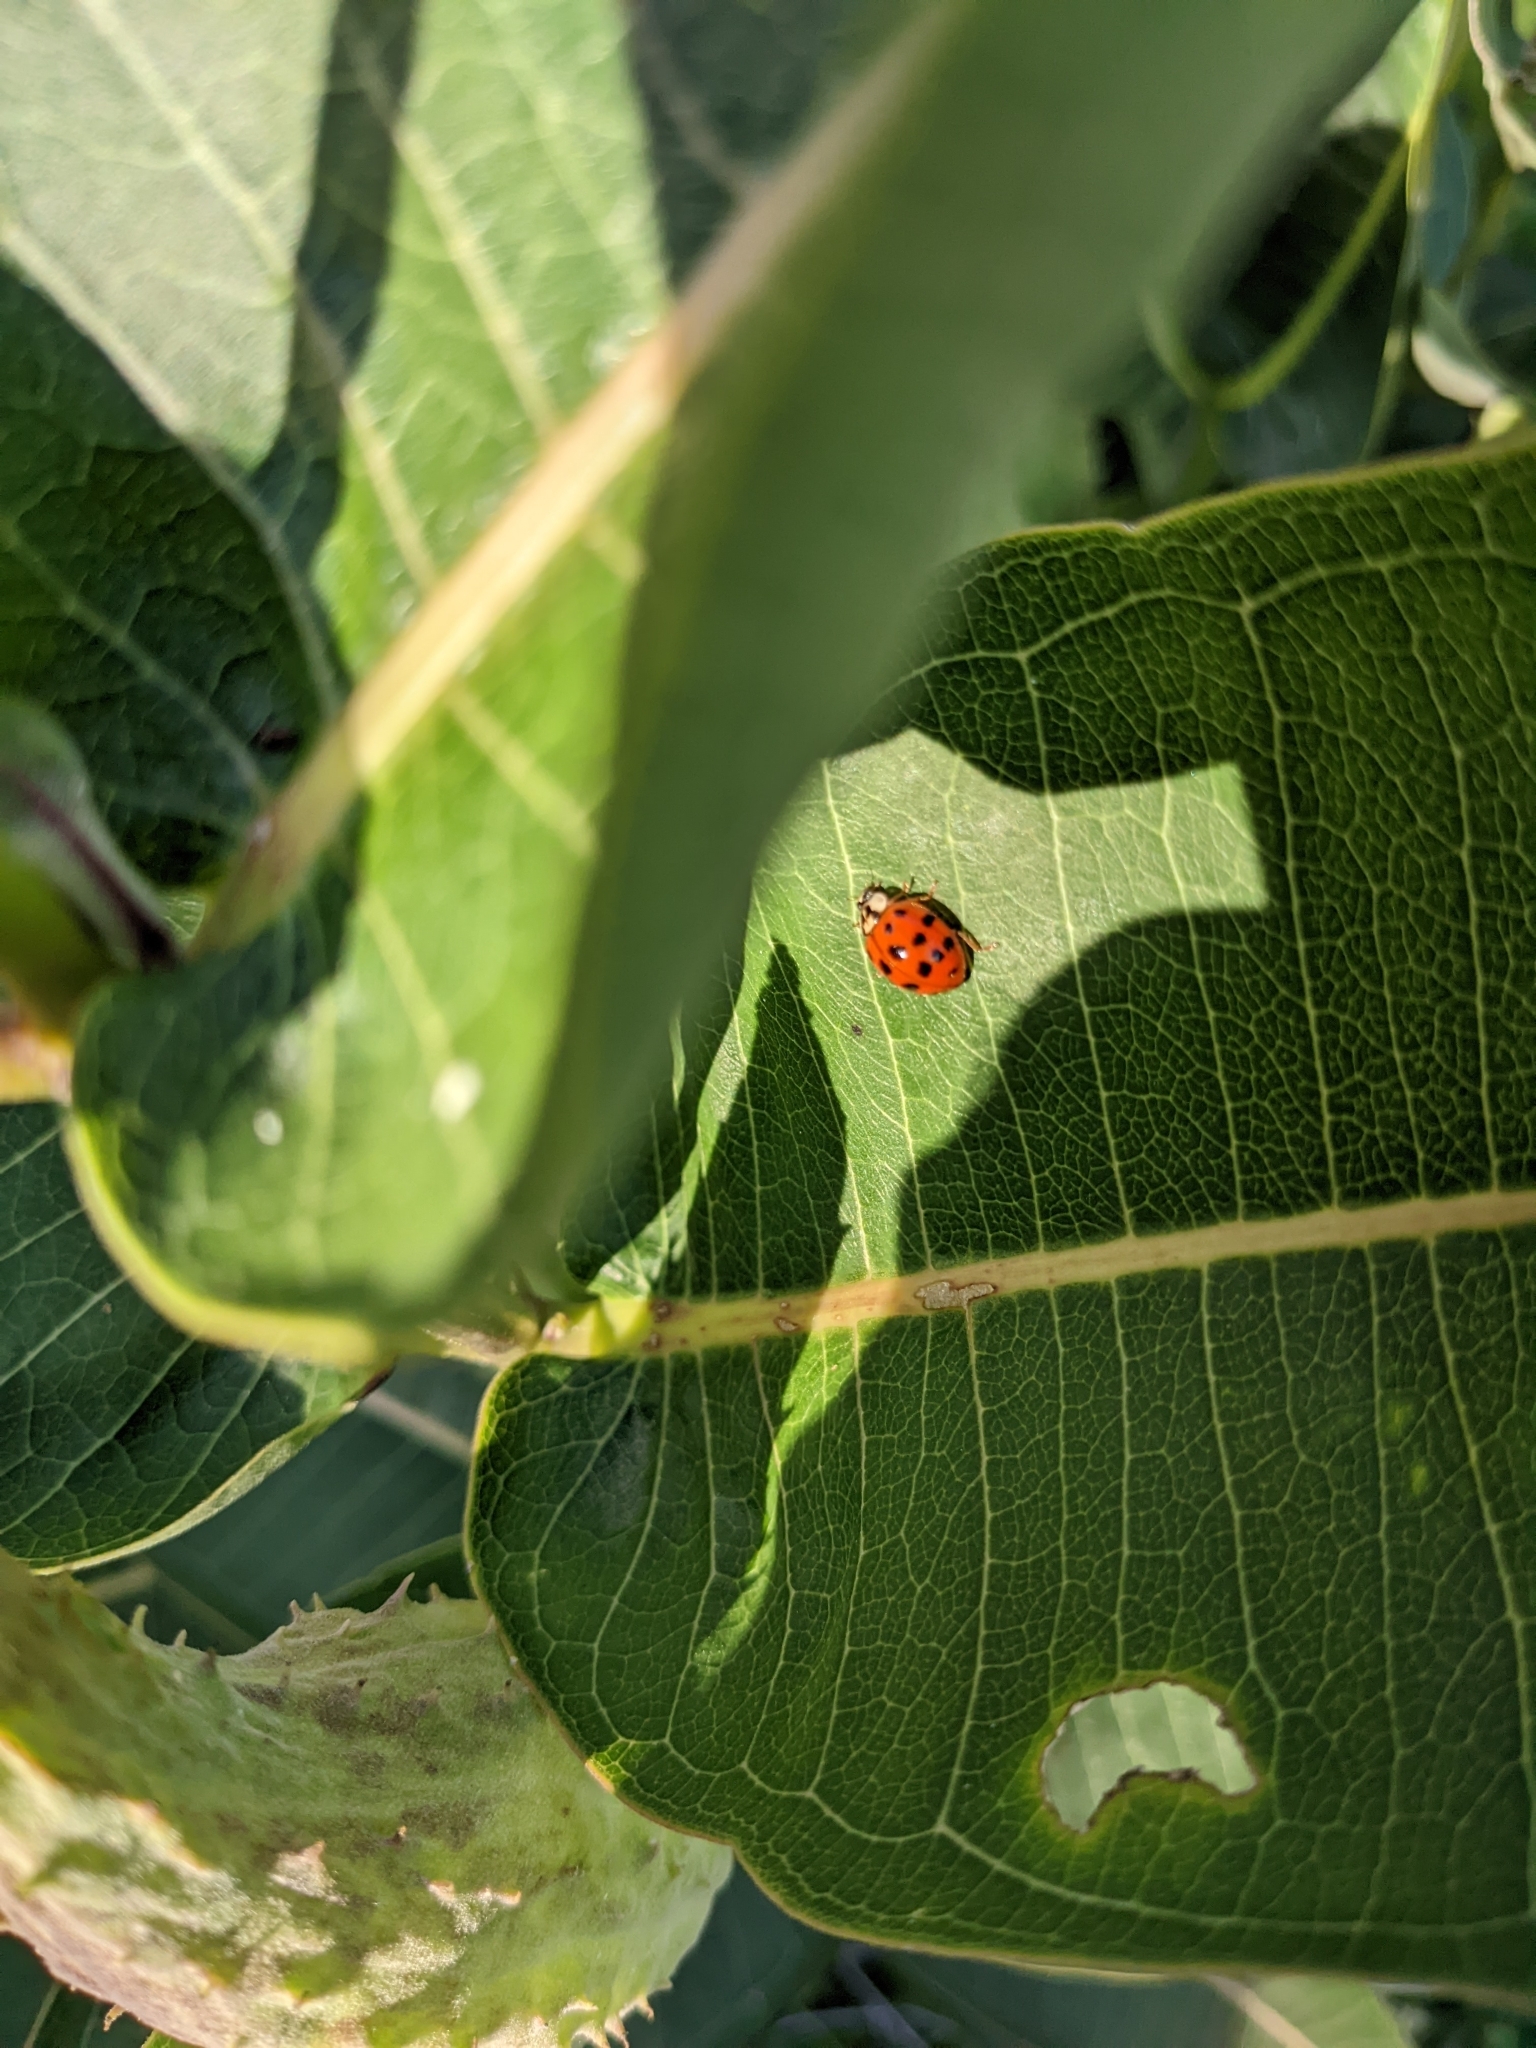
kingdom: Animalia
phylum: Arthropoda
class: Insecta
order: Coleoptera
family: Coccinellidae
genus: Harmonia
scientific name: Harmonia axyridis
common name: Harlequin ladybird
